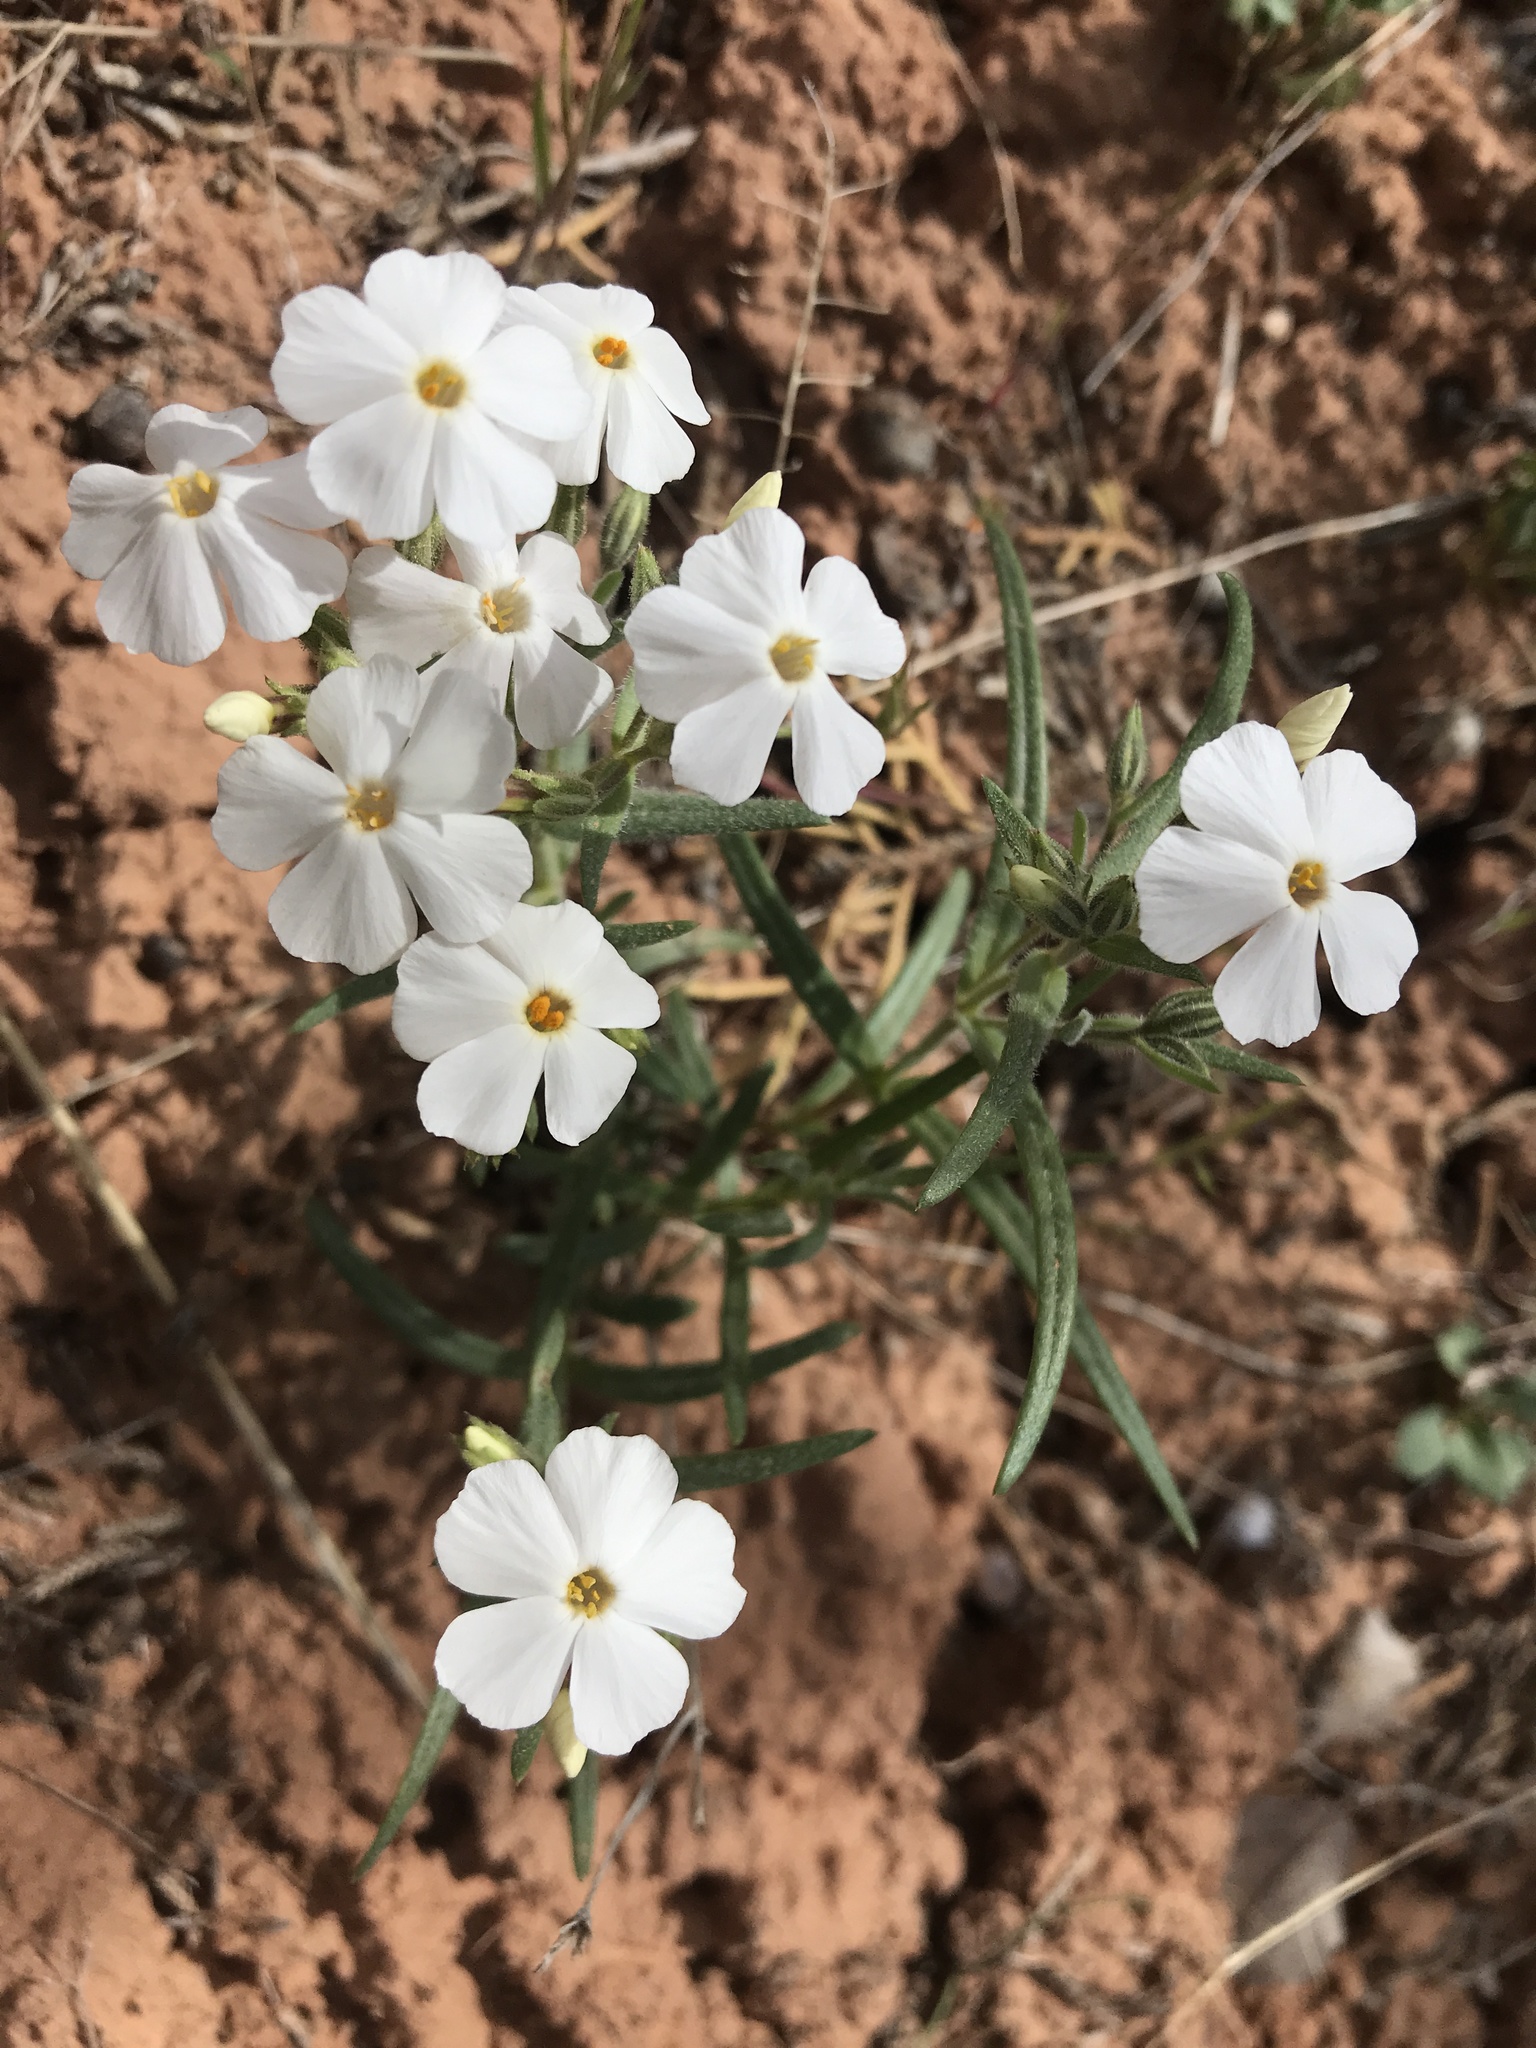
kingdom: Plantae
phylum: Tracheophyta
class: Magnoliopsida
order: Ericales
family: Polemoniaceae
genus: Phlox
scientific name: Phlox longifolia
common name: Longleaf phlox
